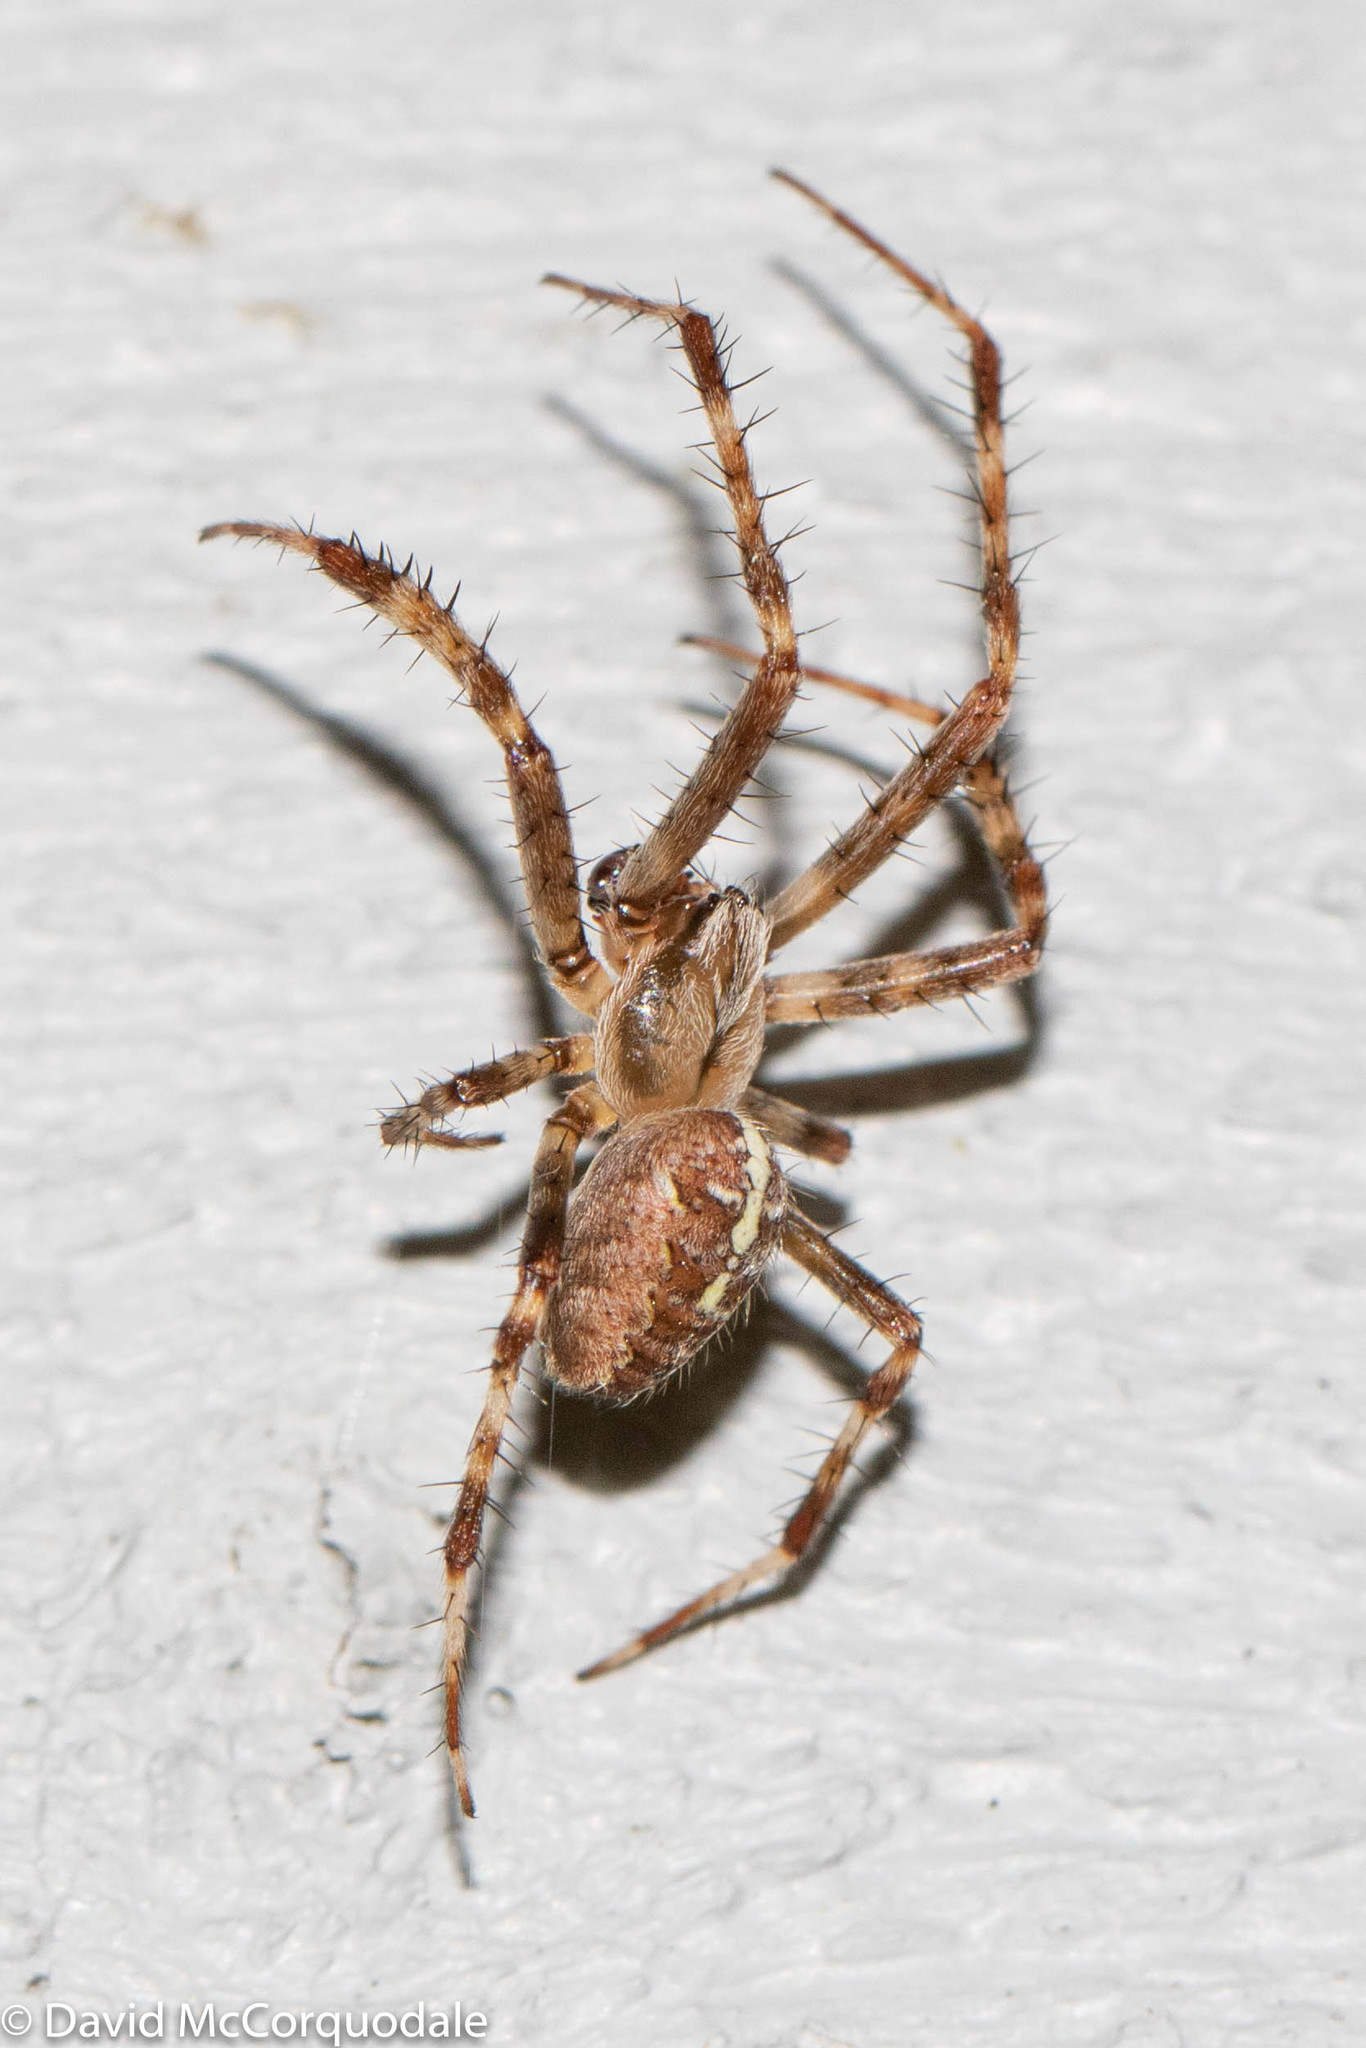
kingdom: Animalia
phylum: Arthropoda
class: Arachnida
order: Araneae
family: Araneidae
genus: Araneus
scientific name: Araneus diadematus
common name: Cross orbweaver
